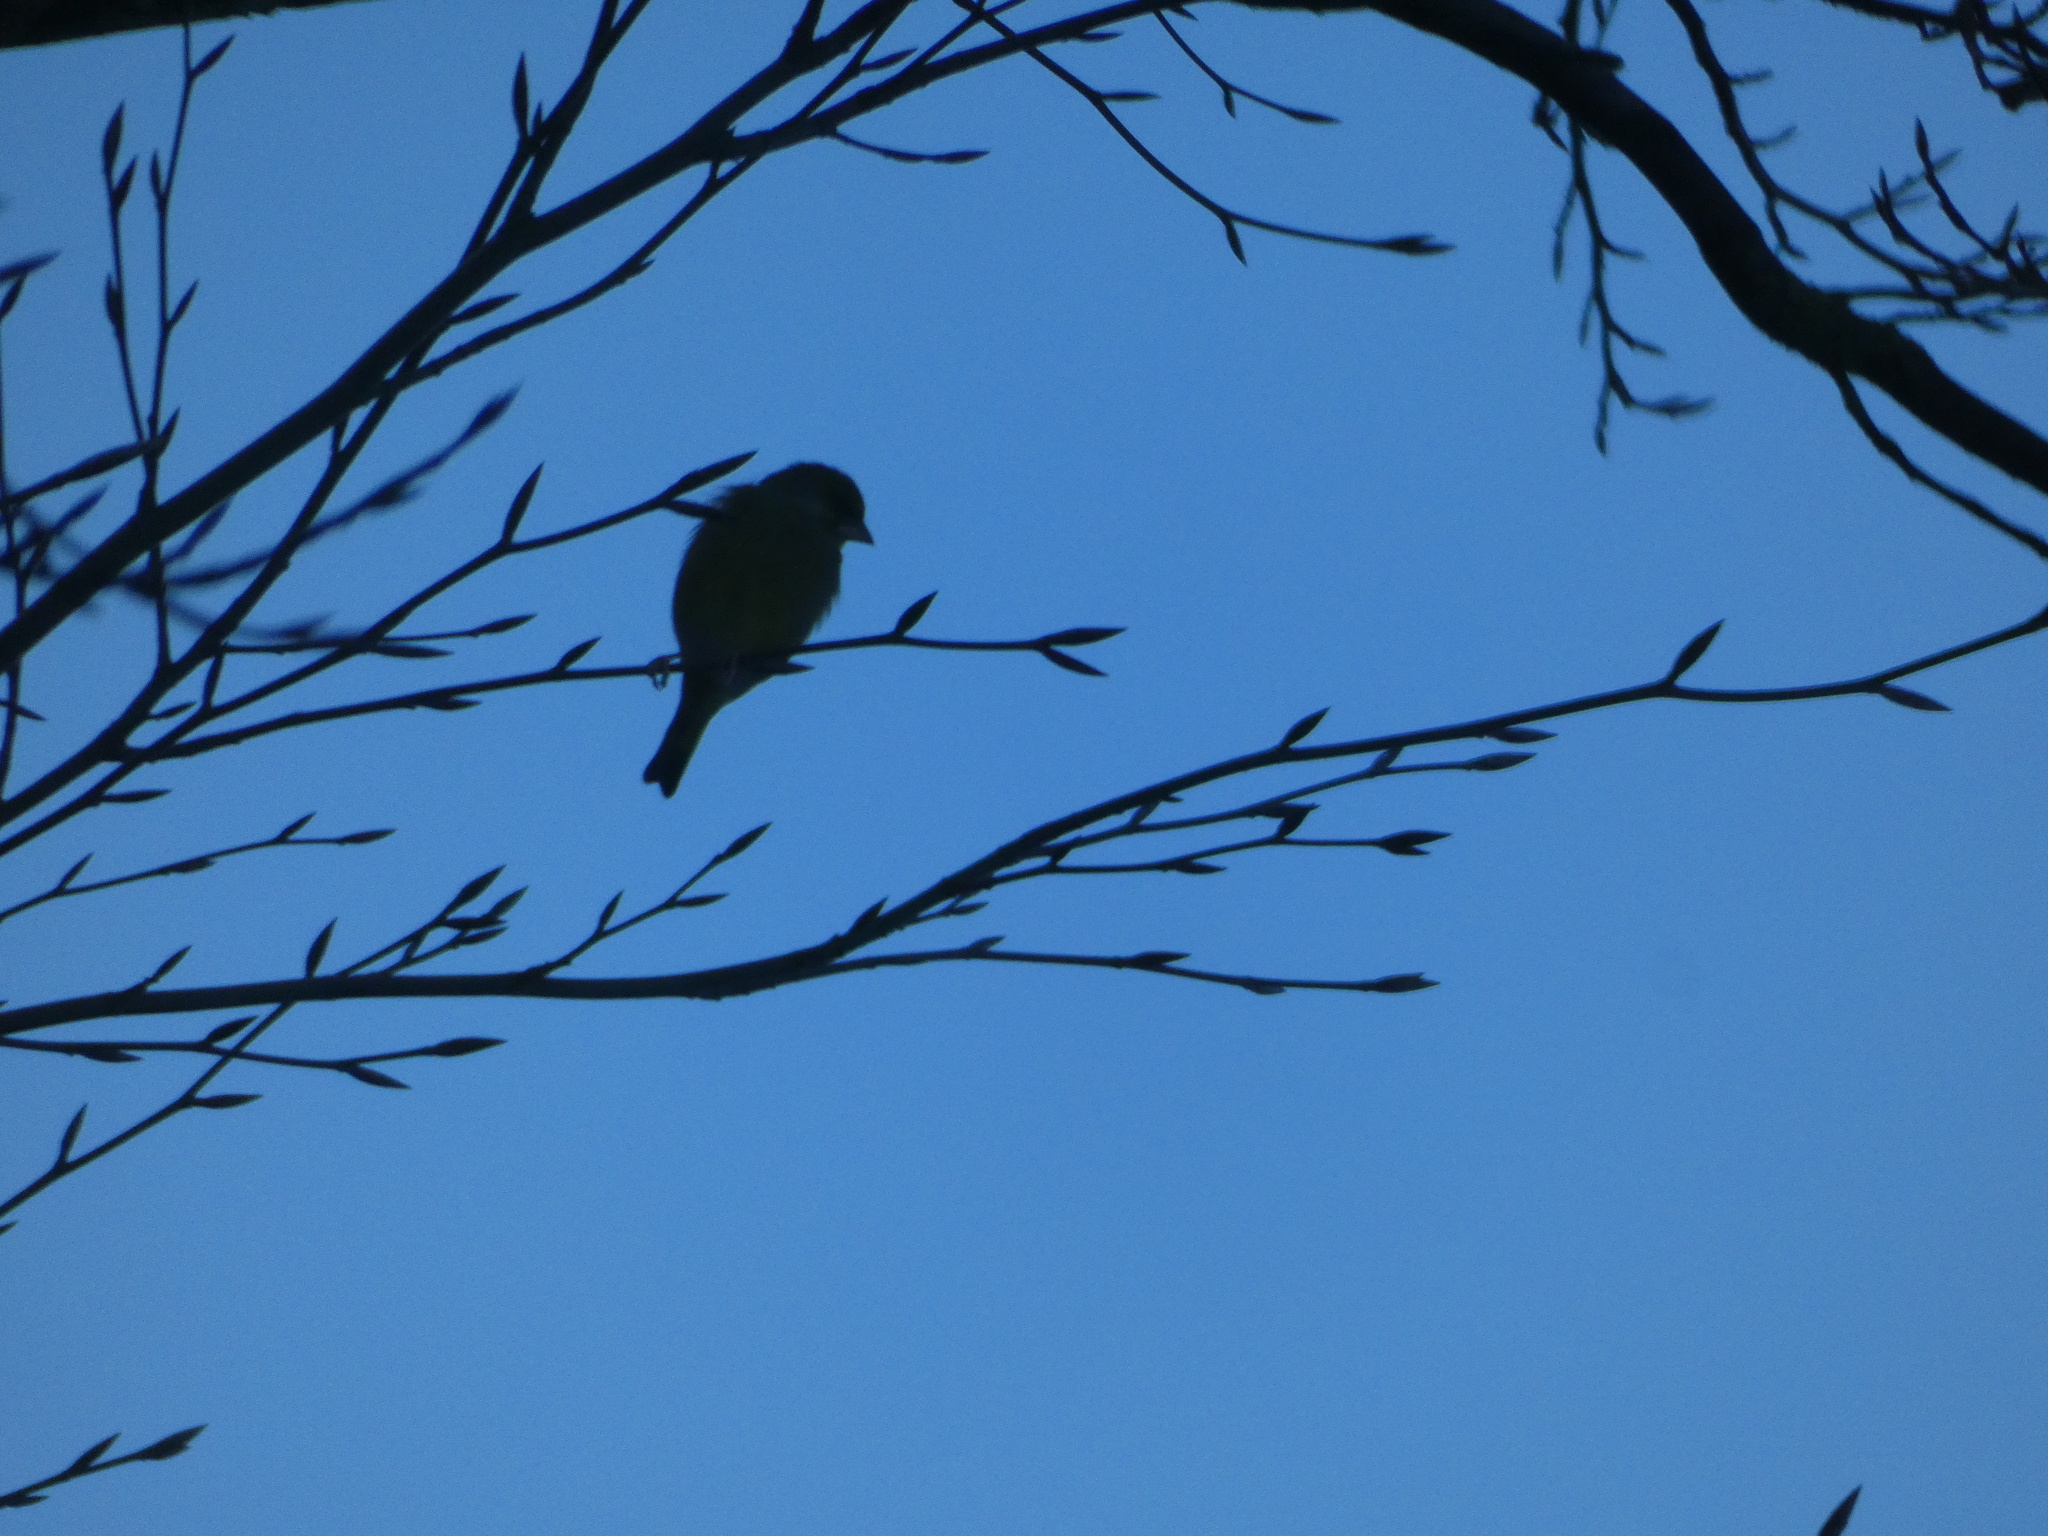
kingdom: Plantae
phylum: Tracheophyta
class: Liliopsida
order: Poales
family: Poaceae
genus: Chloris
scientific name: Chloris chloris
